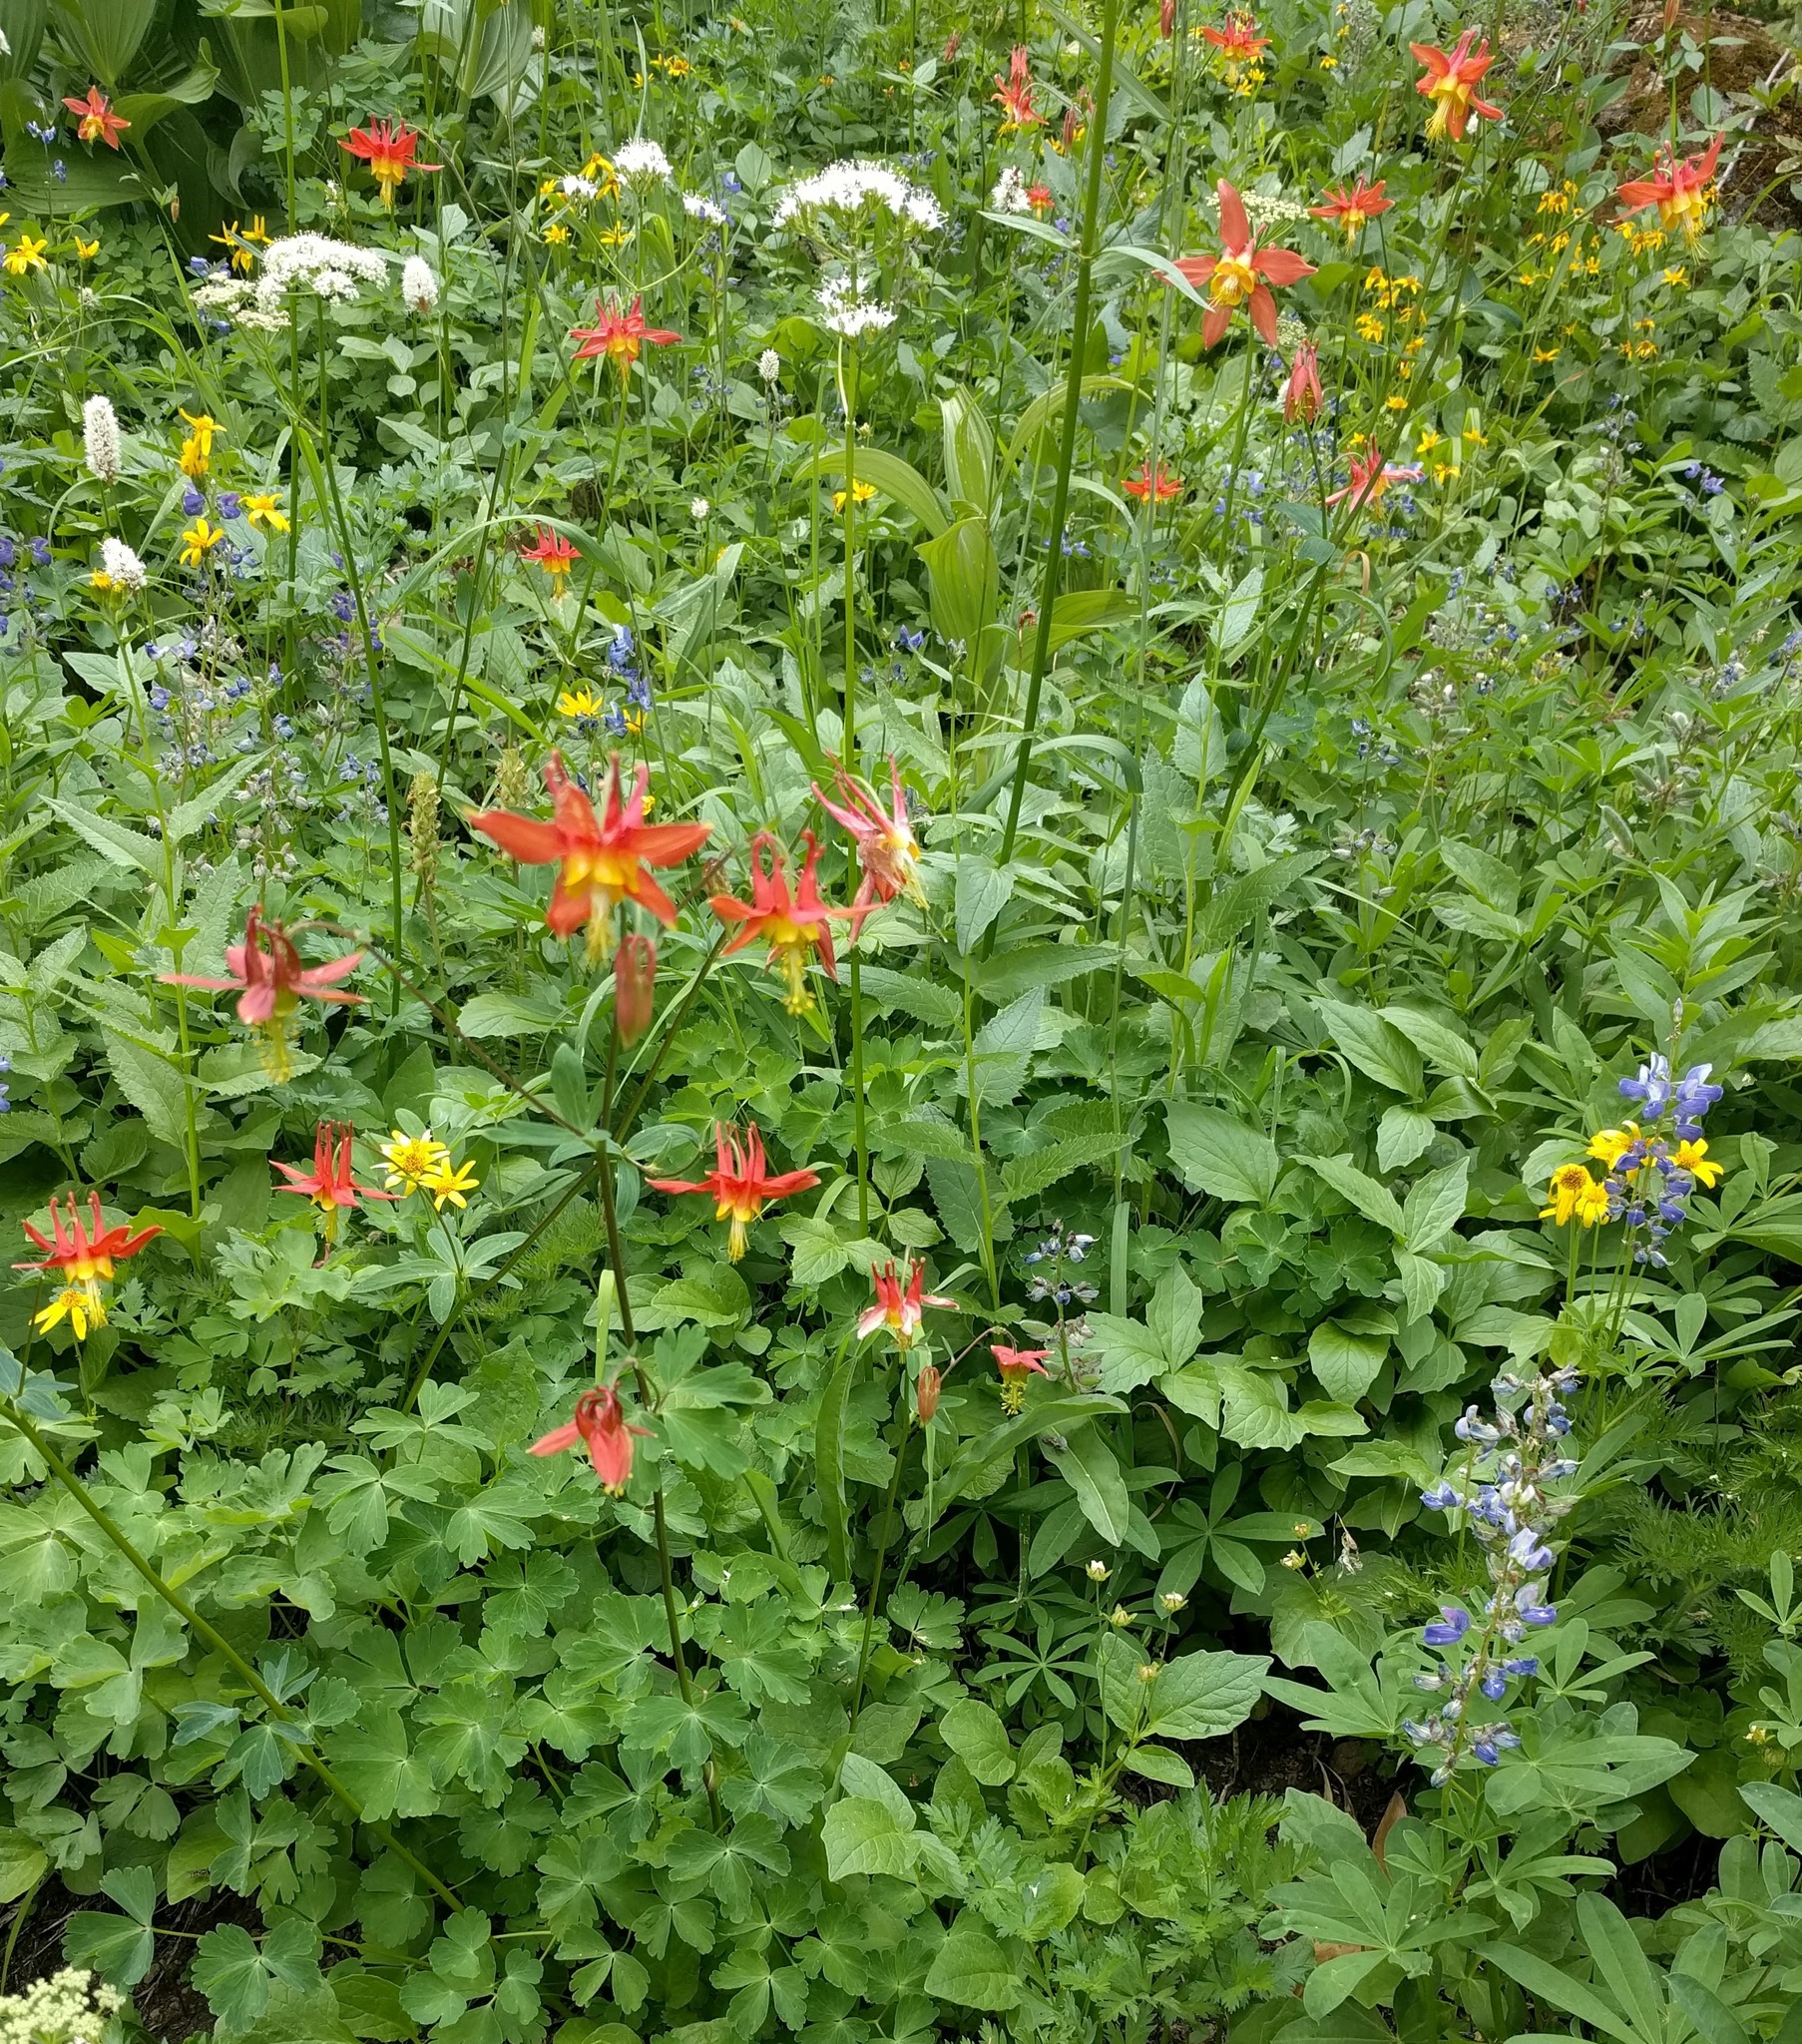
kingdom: Plantae
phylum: Tracheophyta
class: Magnoliopsida
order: Ranunculales
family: Ranunculaceae
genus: Aquilegia
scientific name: Aquilegia formosa
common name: Sitka columbine
